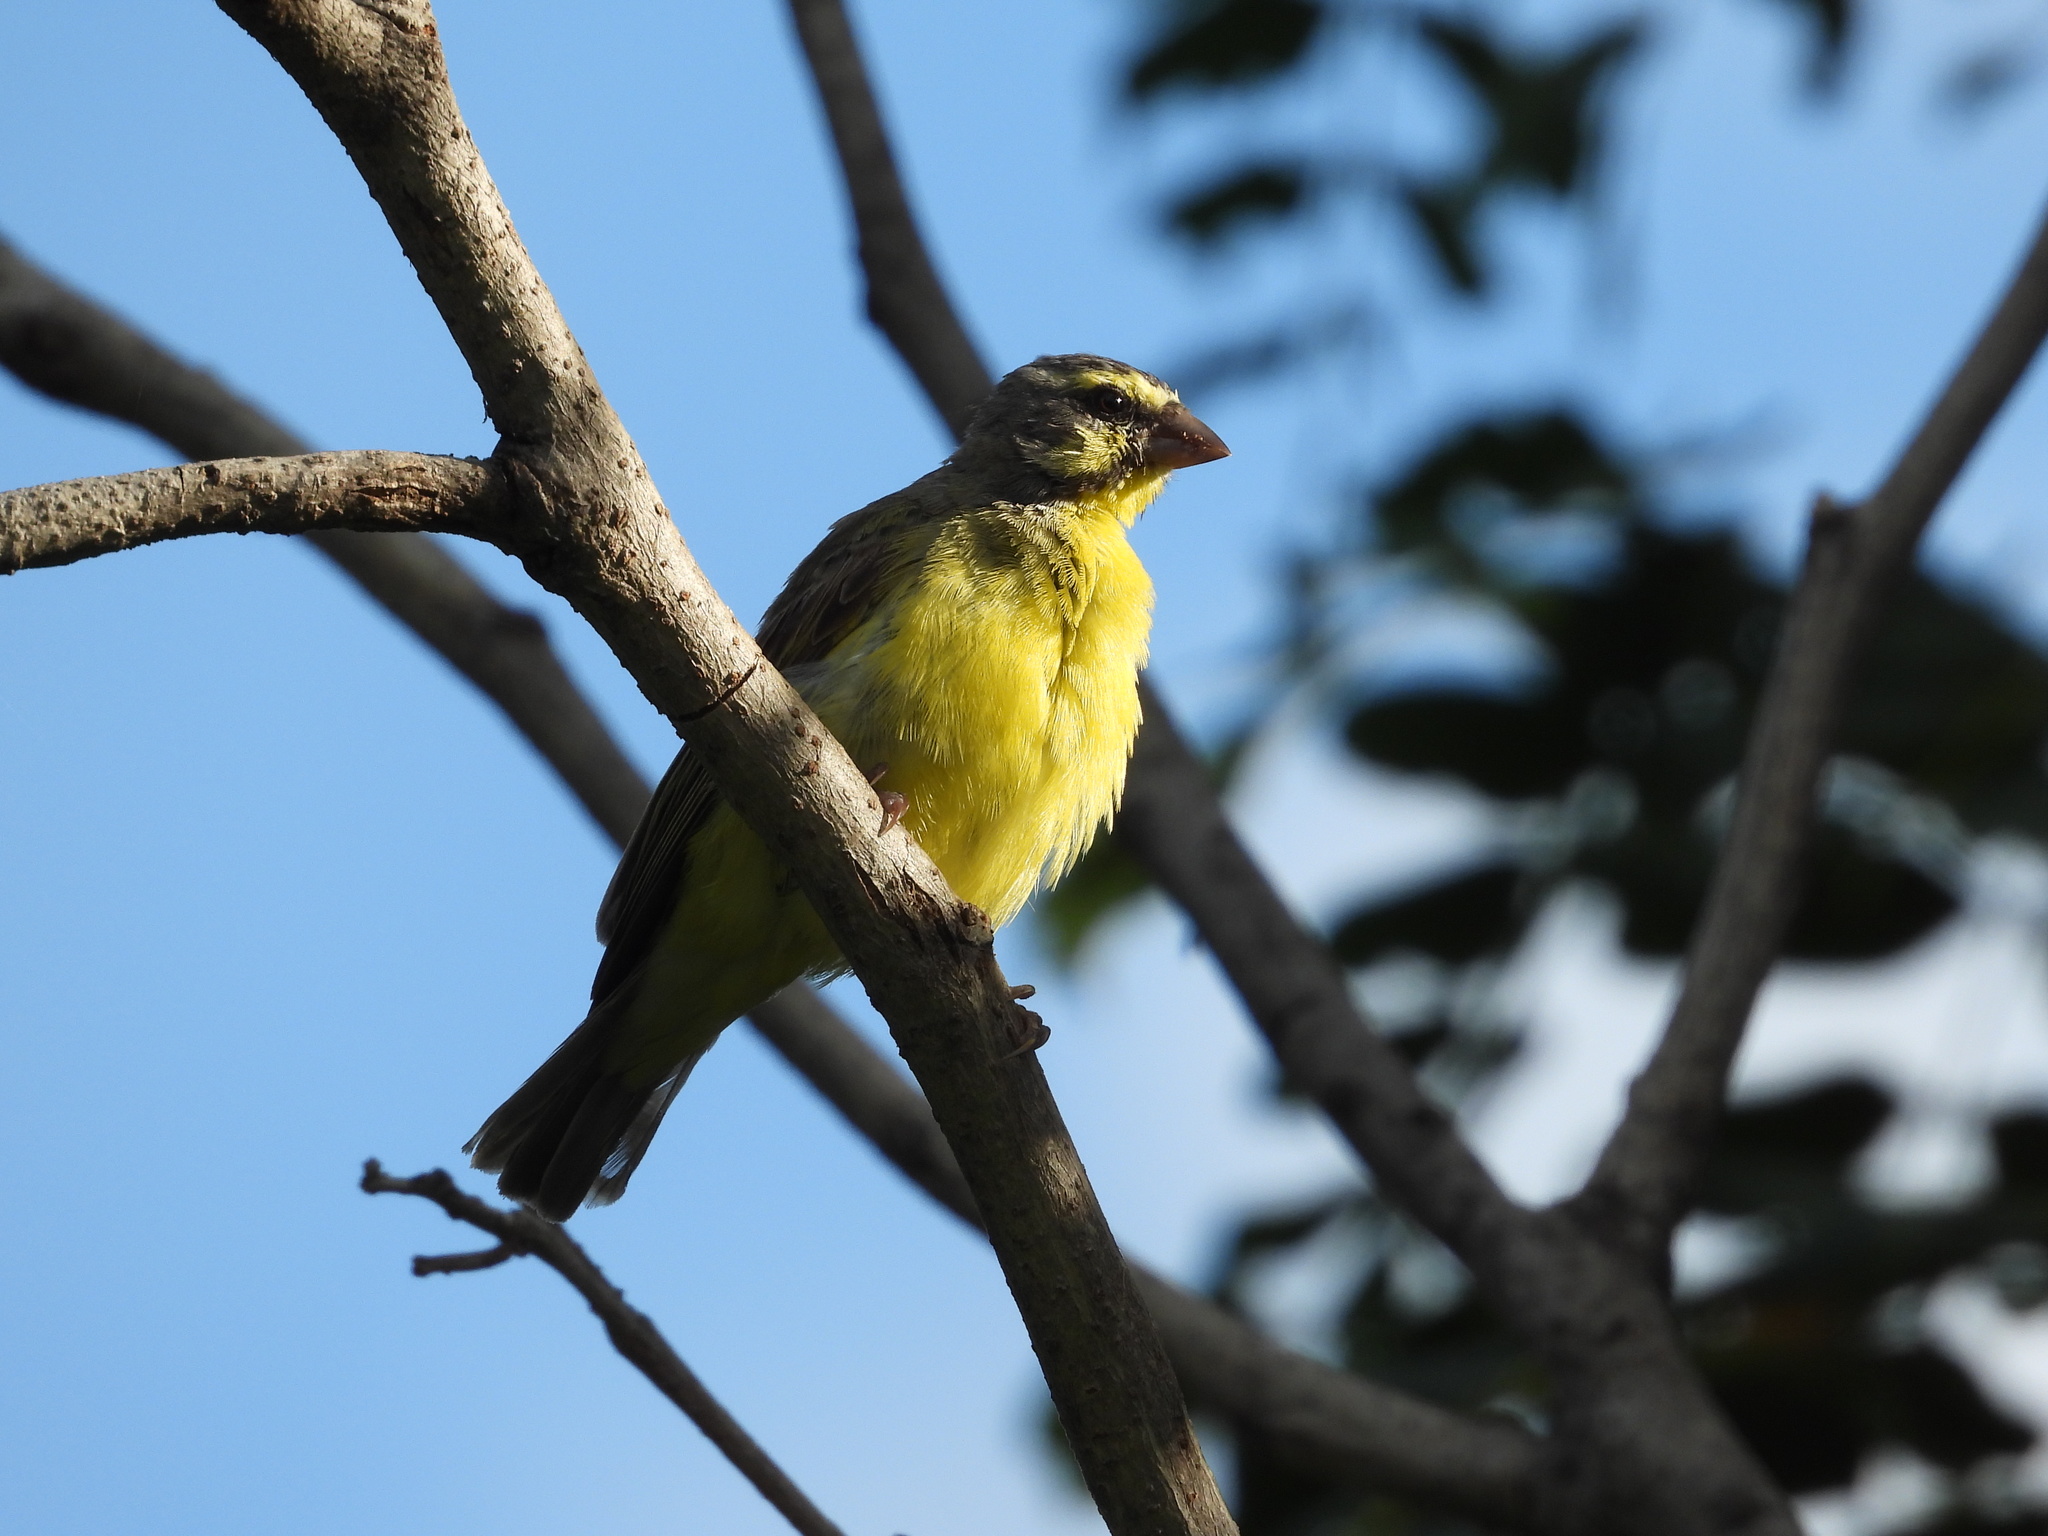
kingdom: Animalia
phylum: Chordata
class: Aves
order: Passeriformes
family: Fringillidae
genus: Crithagra
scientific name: Crithagra mozambica
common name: Yellow-fronted canary
